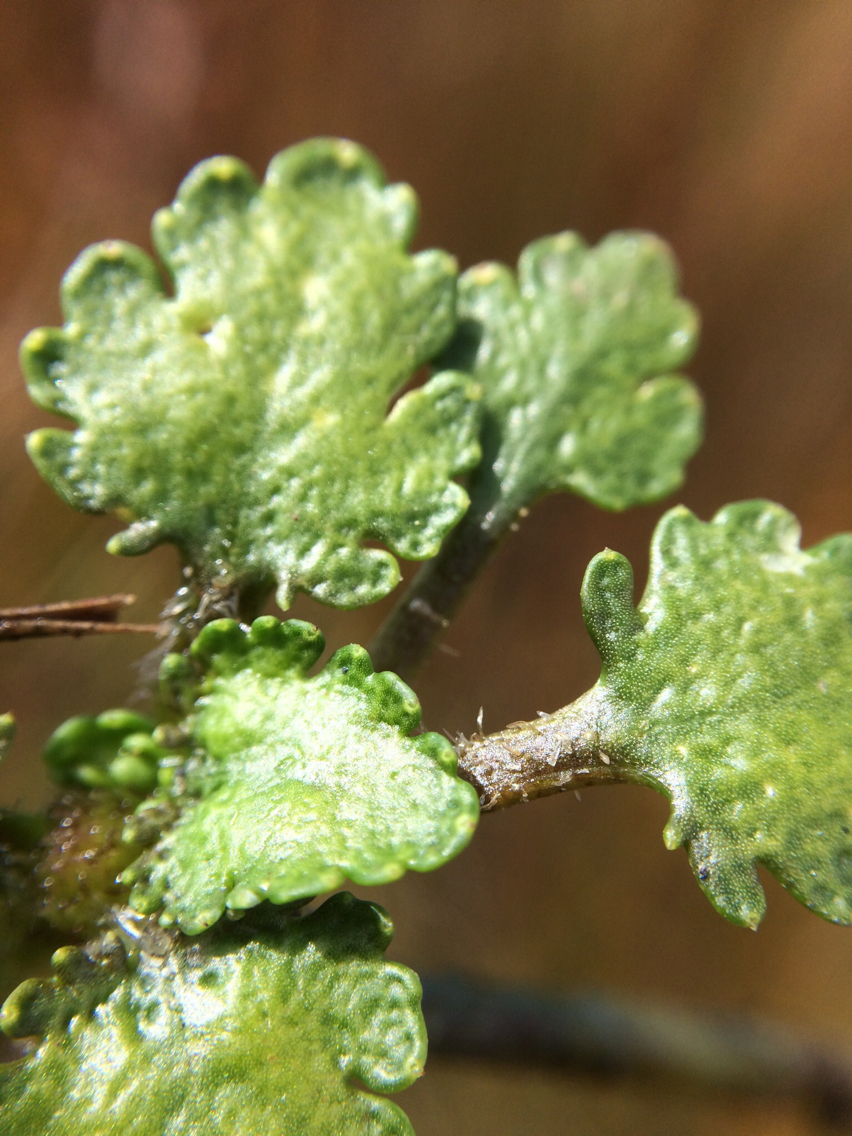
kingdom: Plantae
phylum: Tracheophyta
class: Magnoliopsida
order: Gunnerales
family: Gunneraceae
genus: Gunnera
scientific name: Gunnera dentata
